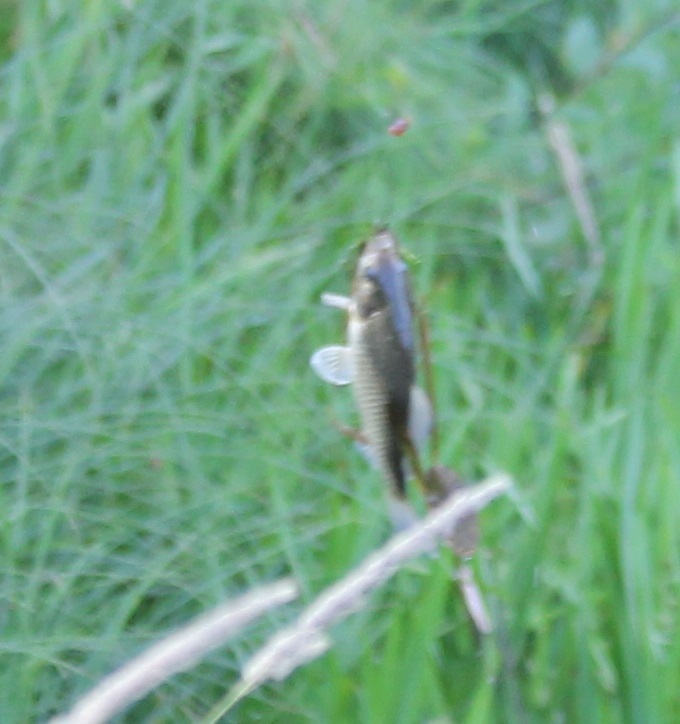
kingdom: Animalia
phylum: Chordata
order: Cypriniformes
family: Cyprinidae
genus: Carassius
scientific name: Carassius gibelio
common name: Prussian carp
